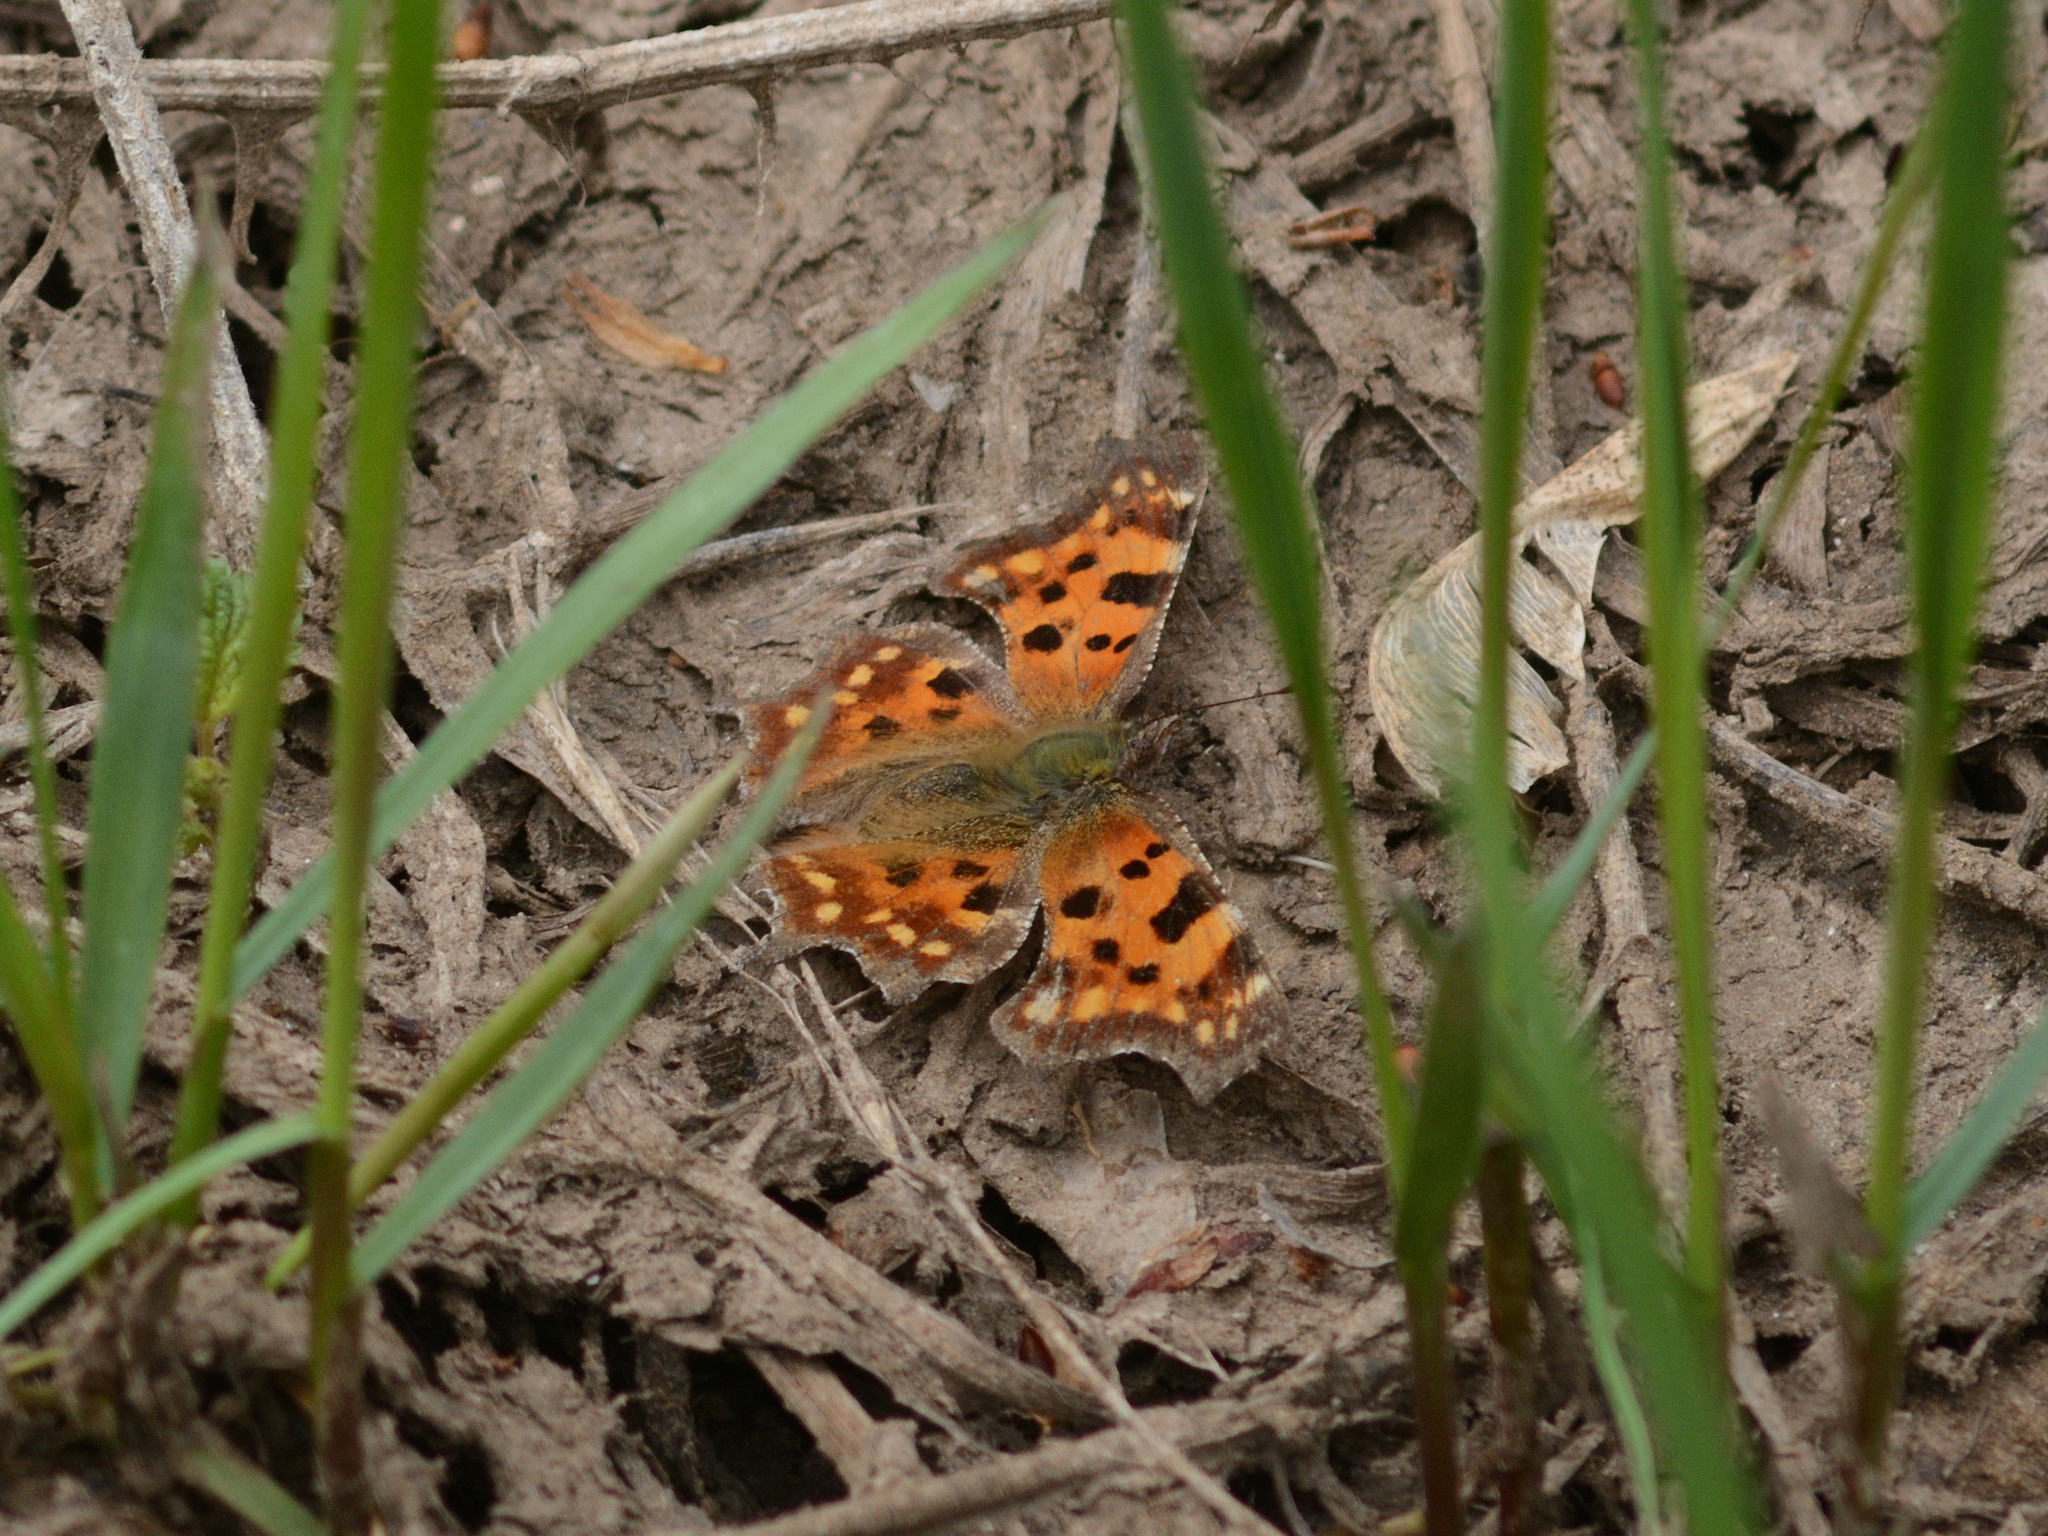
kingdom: Animalia
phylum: Arthropoda
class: Insecta
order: Lepidoptera
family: Nymphalidae
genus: Polygonia
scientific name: Polygonia c-album
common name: Comma
